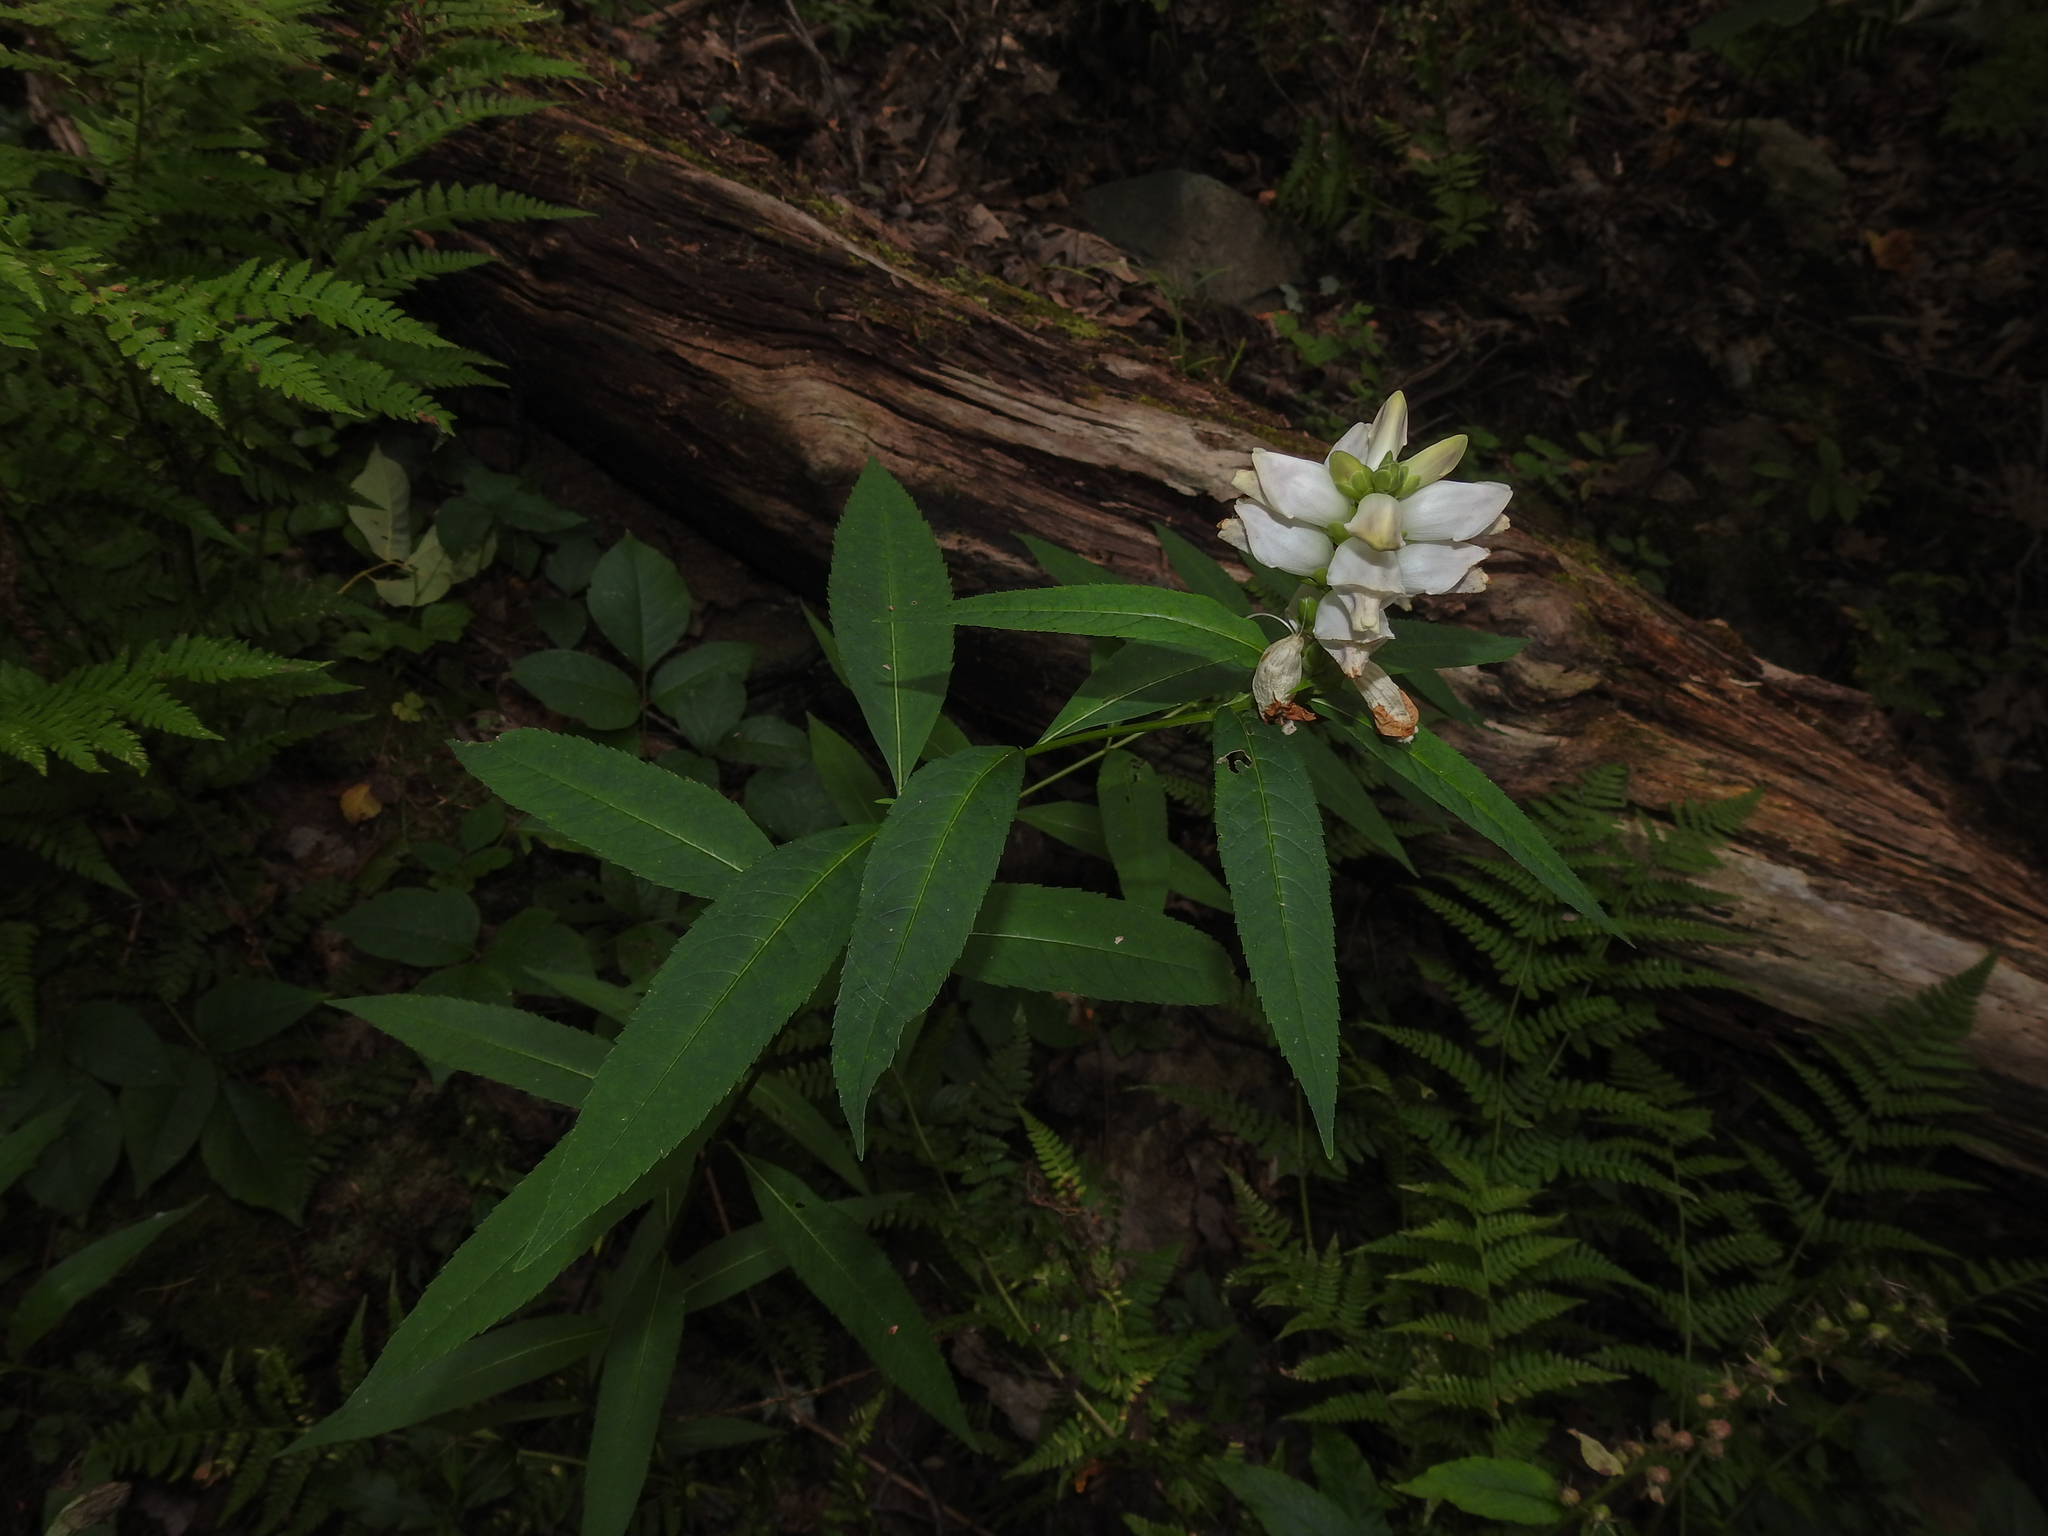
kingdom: Plantae
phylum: Tracheophyta
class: Magnoliopsida
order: Lamiales
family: Plantaginaceae
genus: Chelone
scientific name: Chelone glabra
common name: Snakehead
